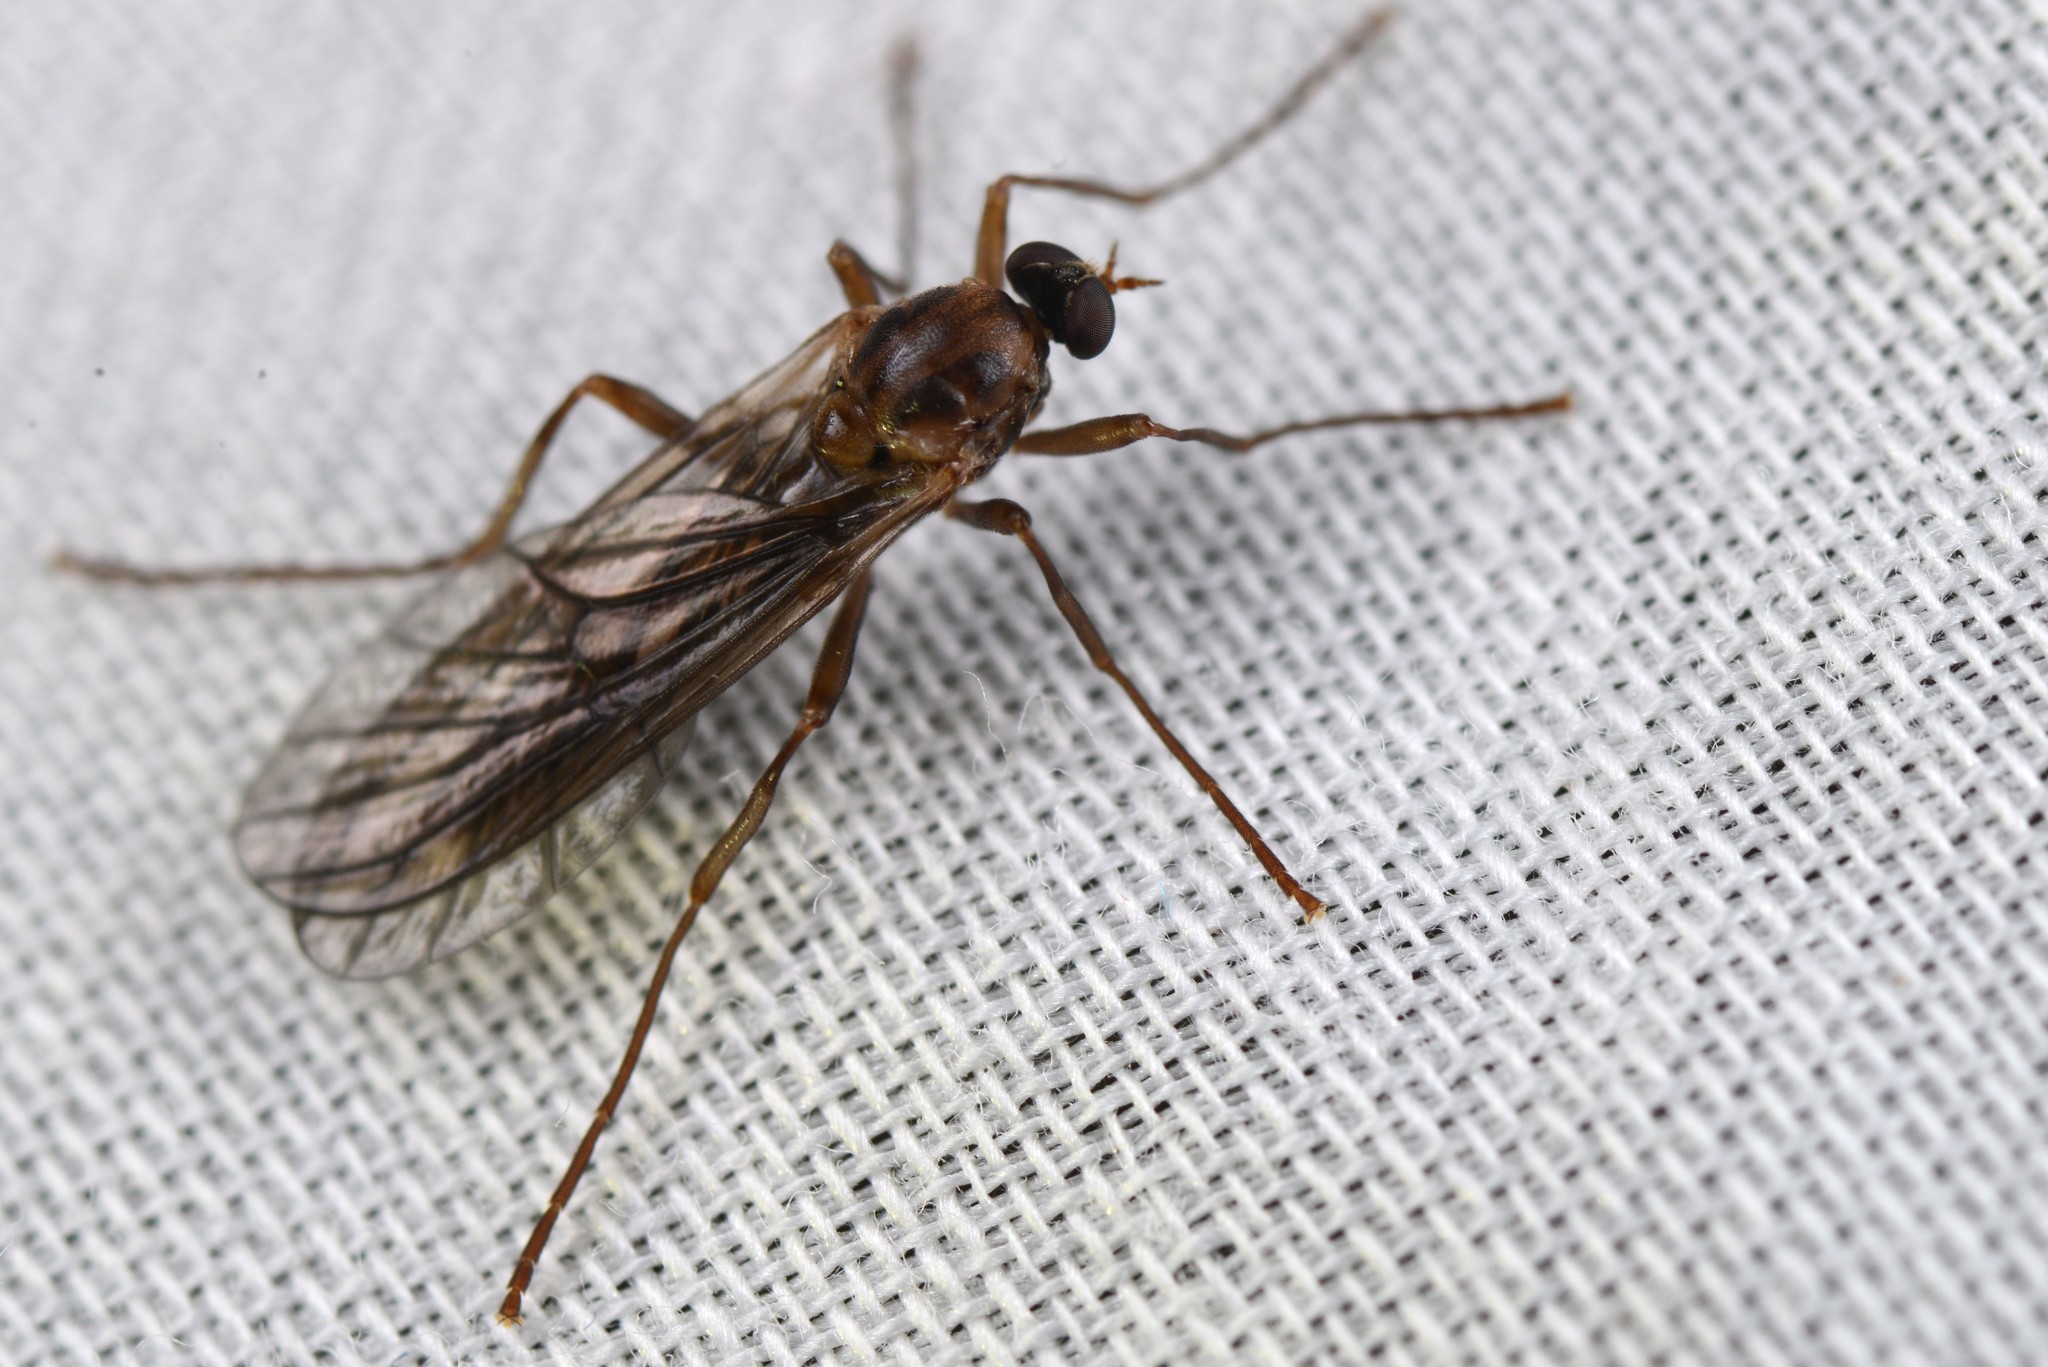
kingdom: Animalia
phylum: Arthropoda
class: Insecta
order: Diptera
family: Stratiomyidae
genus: Boreoides
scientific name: Boreoides tasmaniensis
